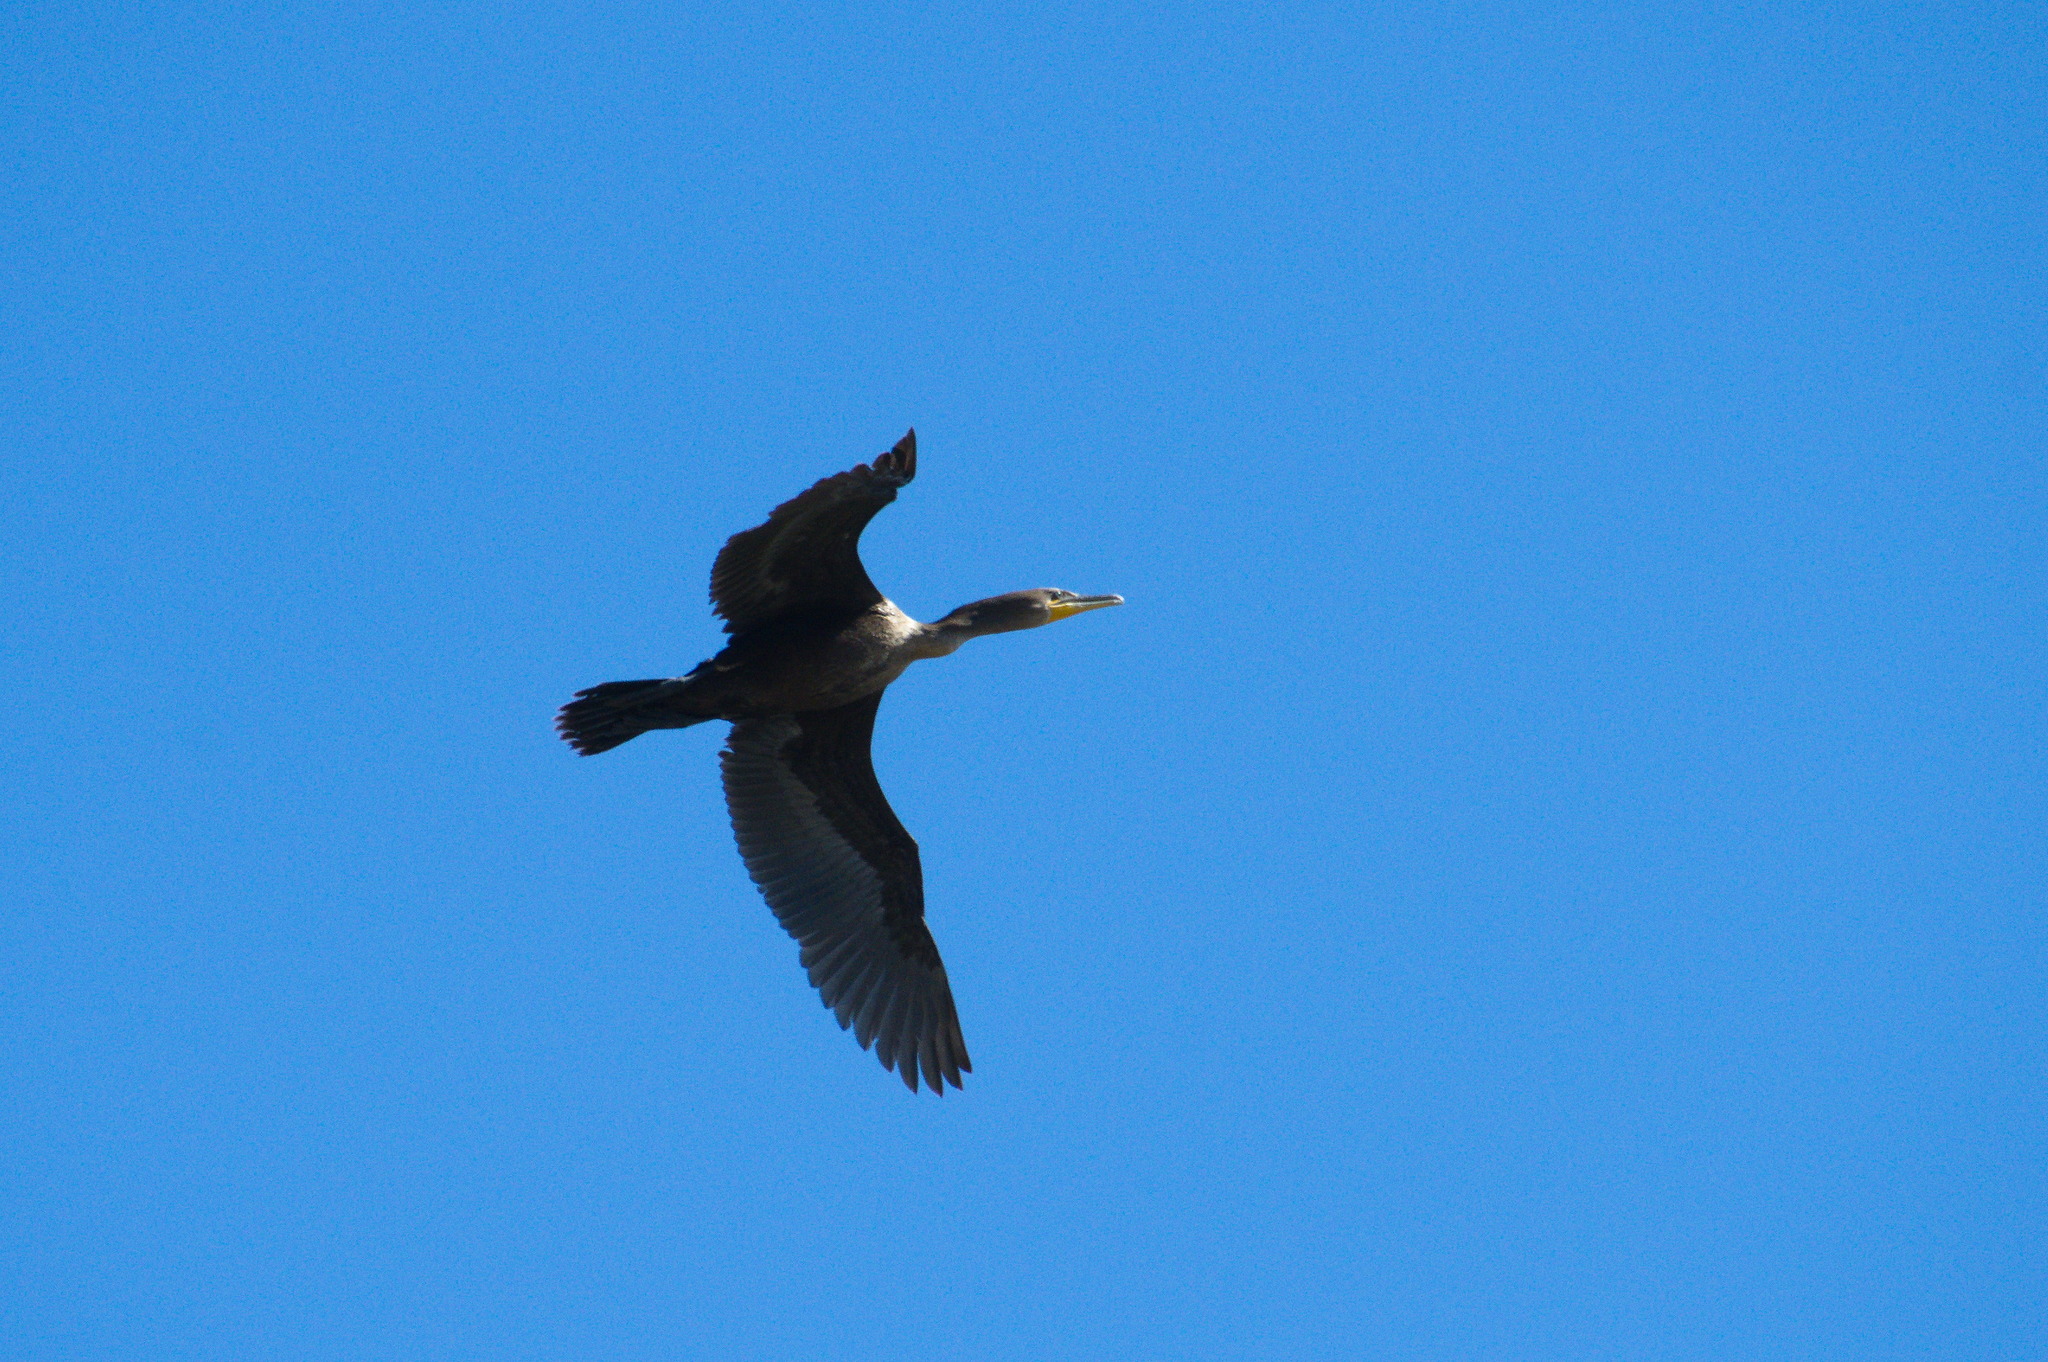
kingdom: Animalia
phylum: Chordata
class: Aves
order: Suliformes
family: Phalacrocoracidae
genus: Phalacrocorax
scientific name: Phalacrocorax auritus
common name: Double-crested cormorant
